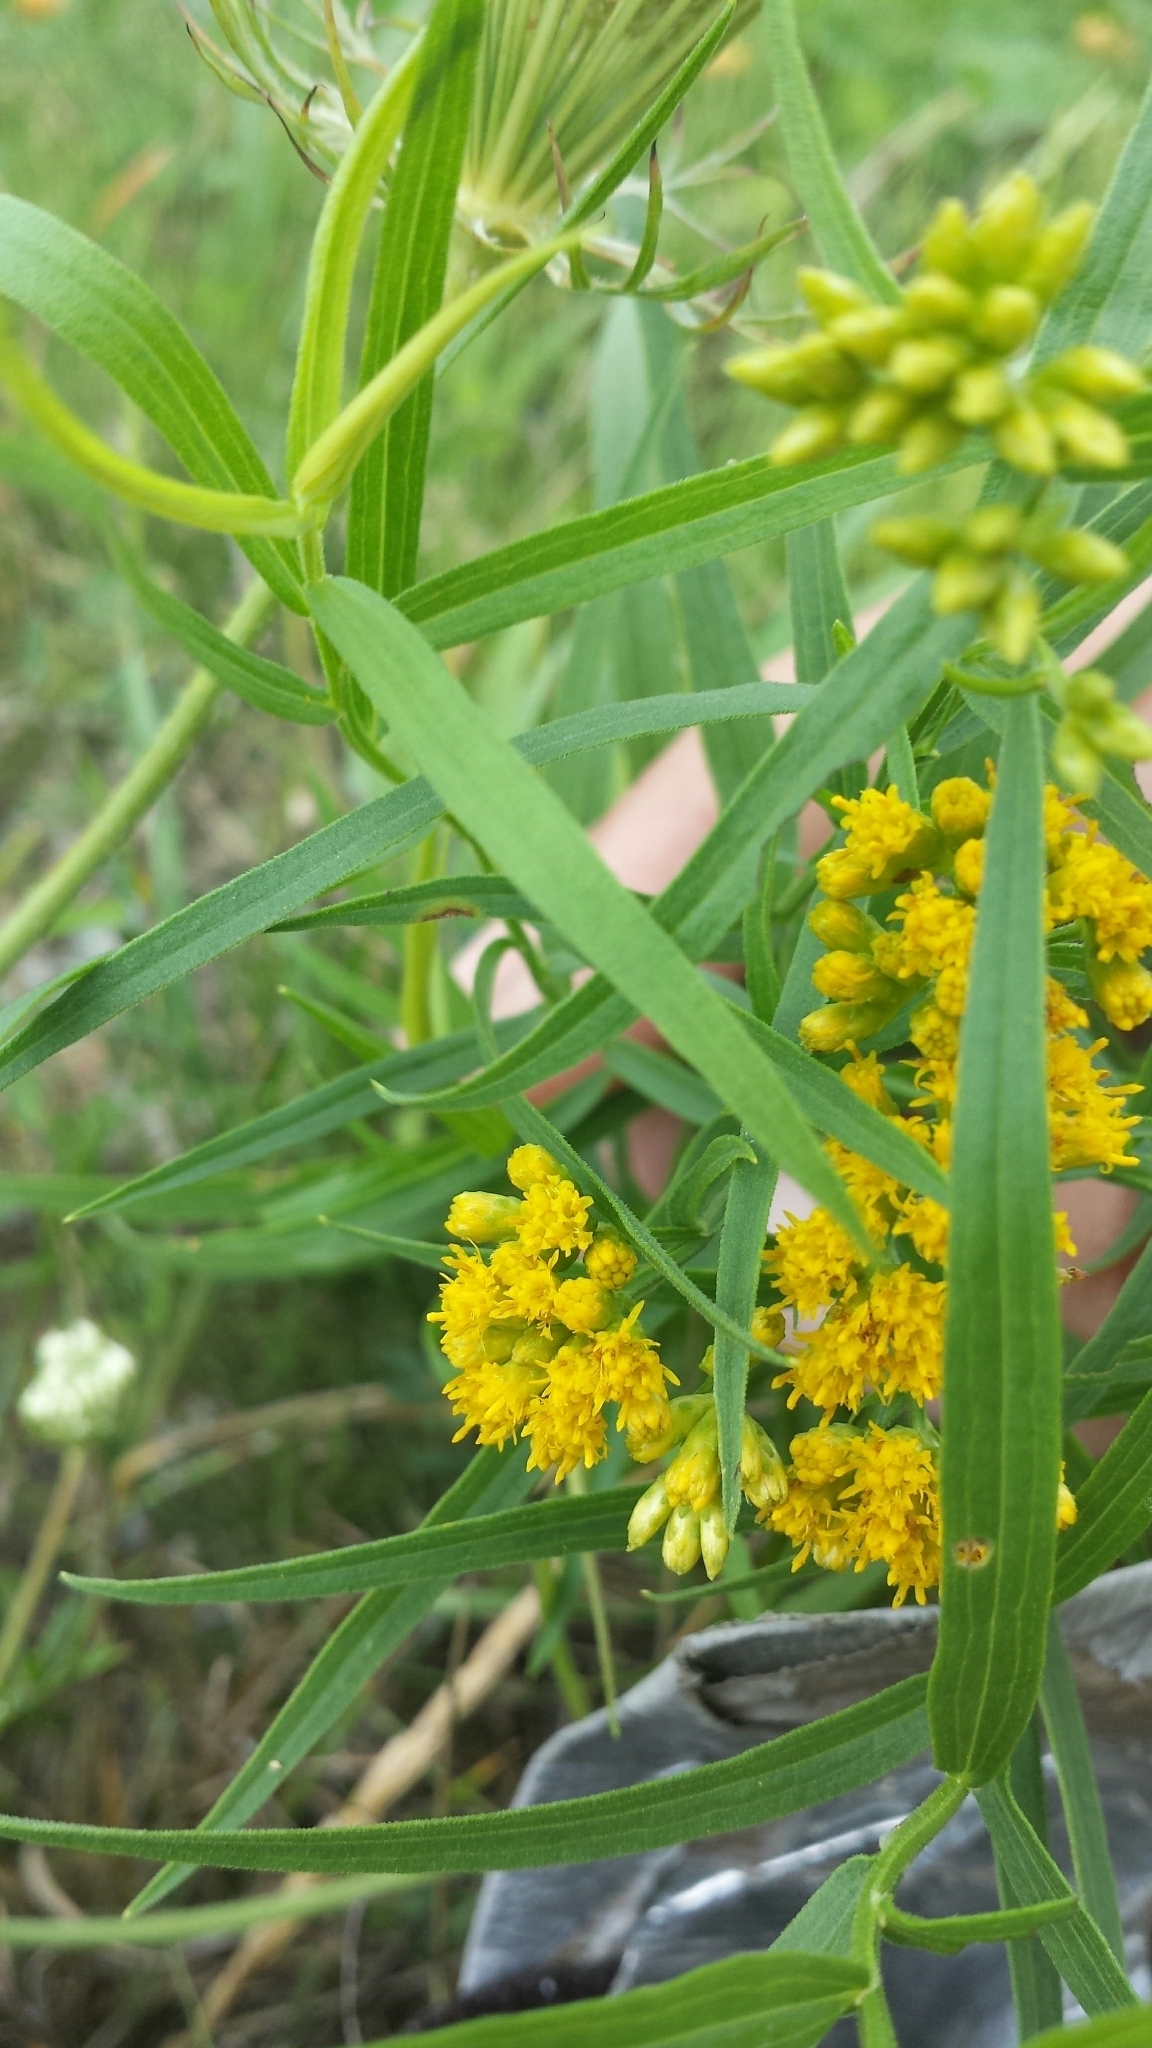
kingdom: Plantae
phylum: Tracheophyta
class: Magnoliopsida
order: Asterales
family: Asteraceae
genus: Euthamia
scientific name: Euthamia graminifolia
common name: Common goldentop
